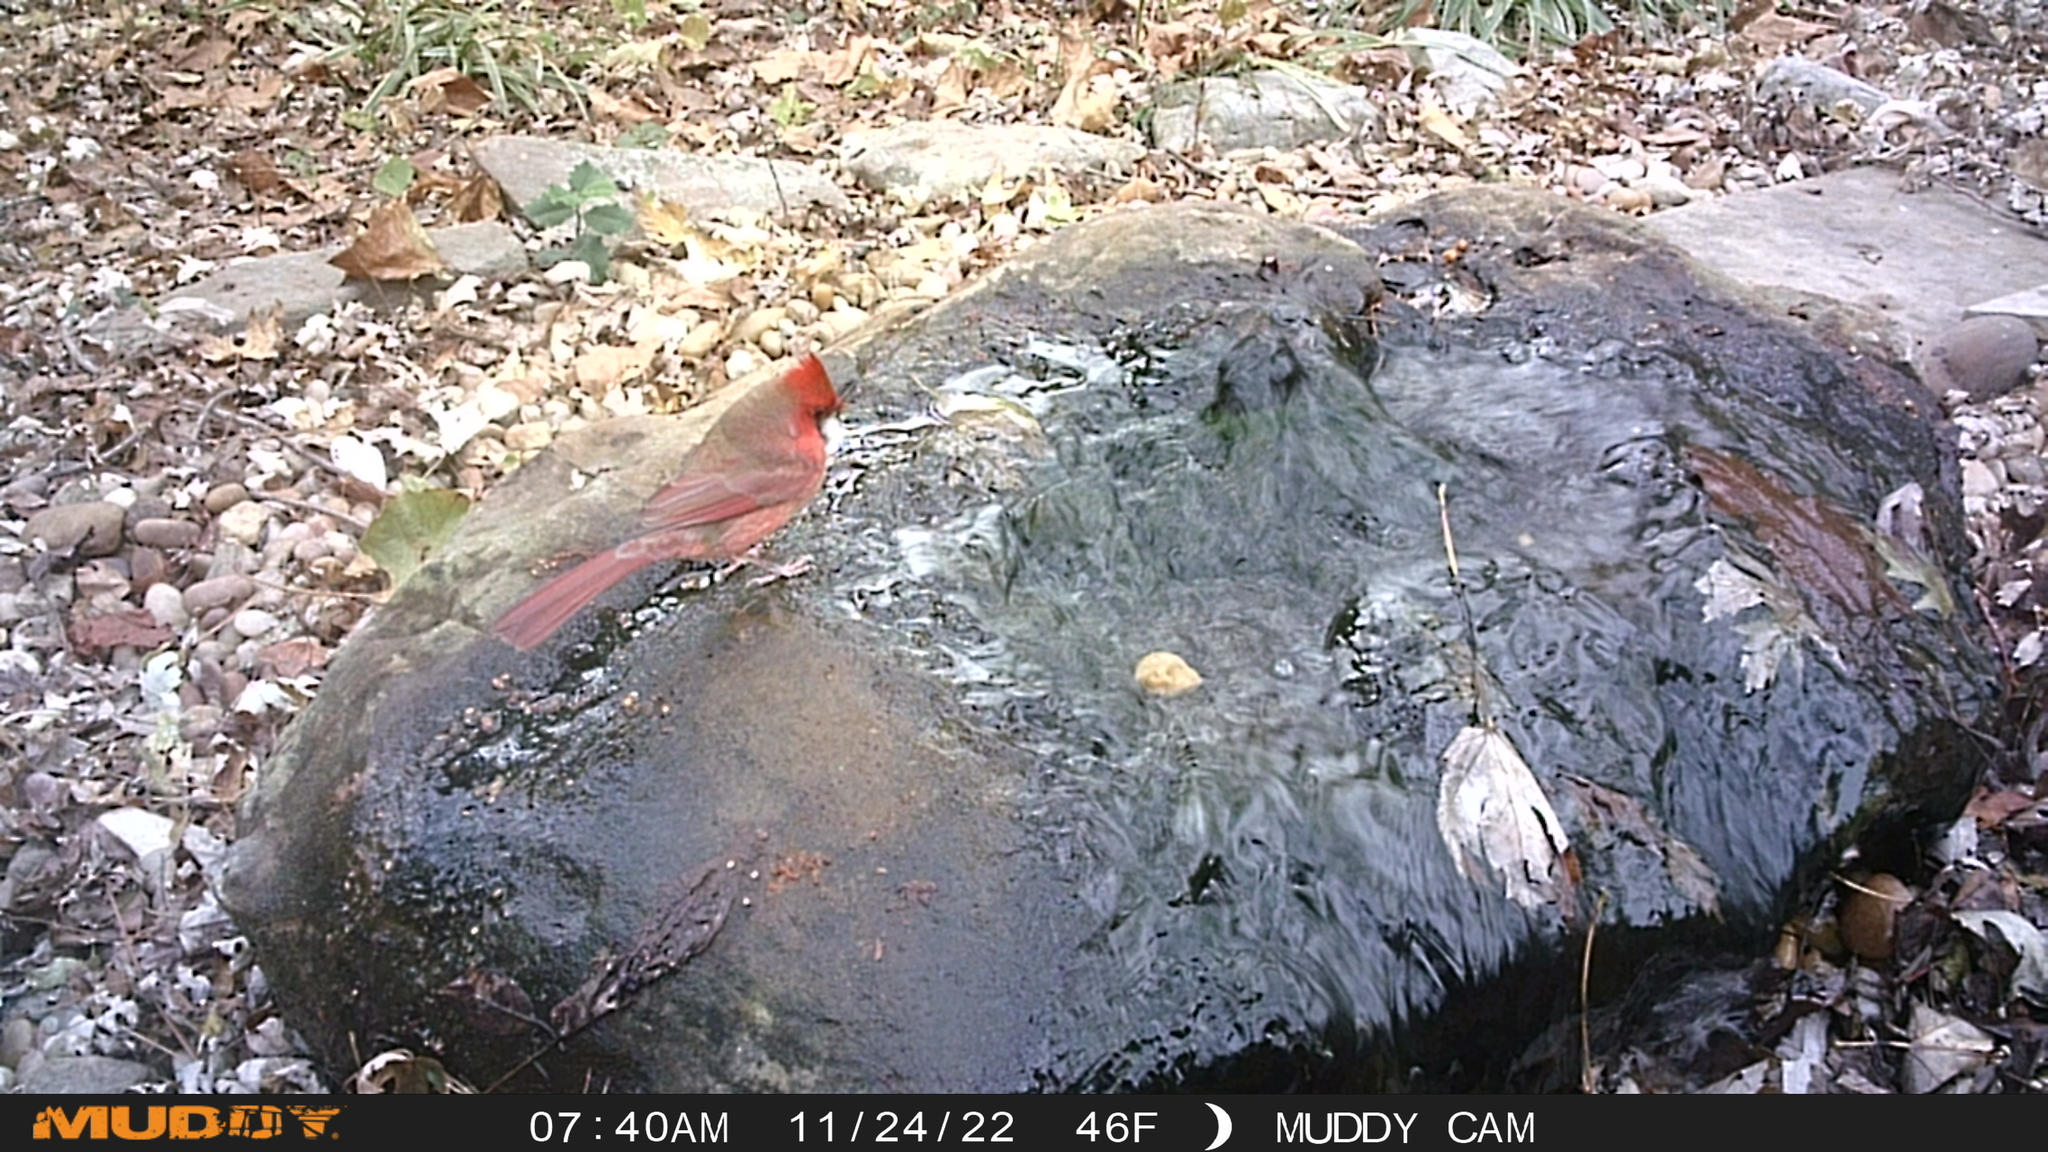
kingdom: Animalia
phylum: Chordata
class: Aves
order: Passeriformes
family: Cardinalidae
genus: Cardinalis
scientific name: Cardinalis cardinalis
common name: Northern cardinal
